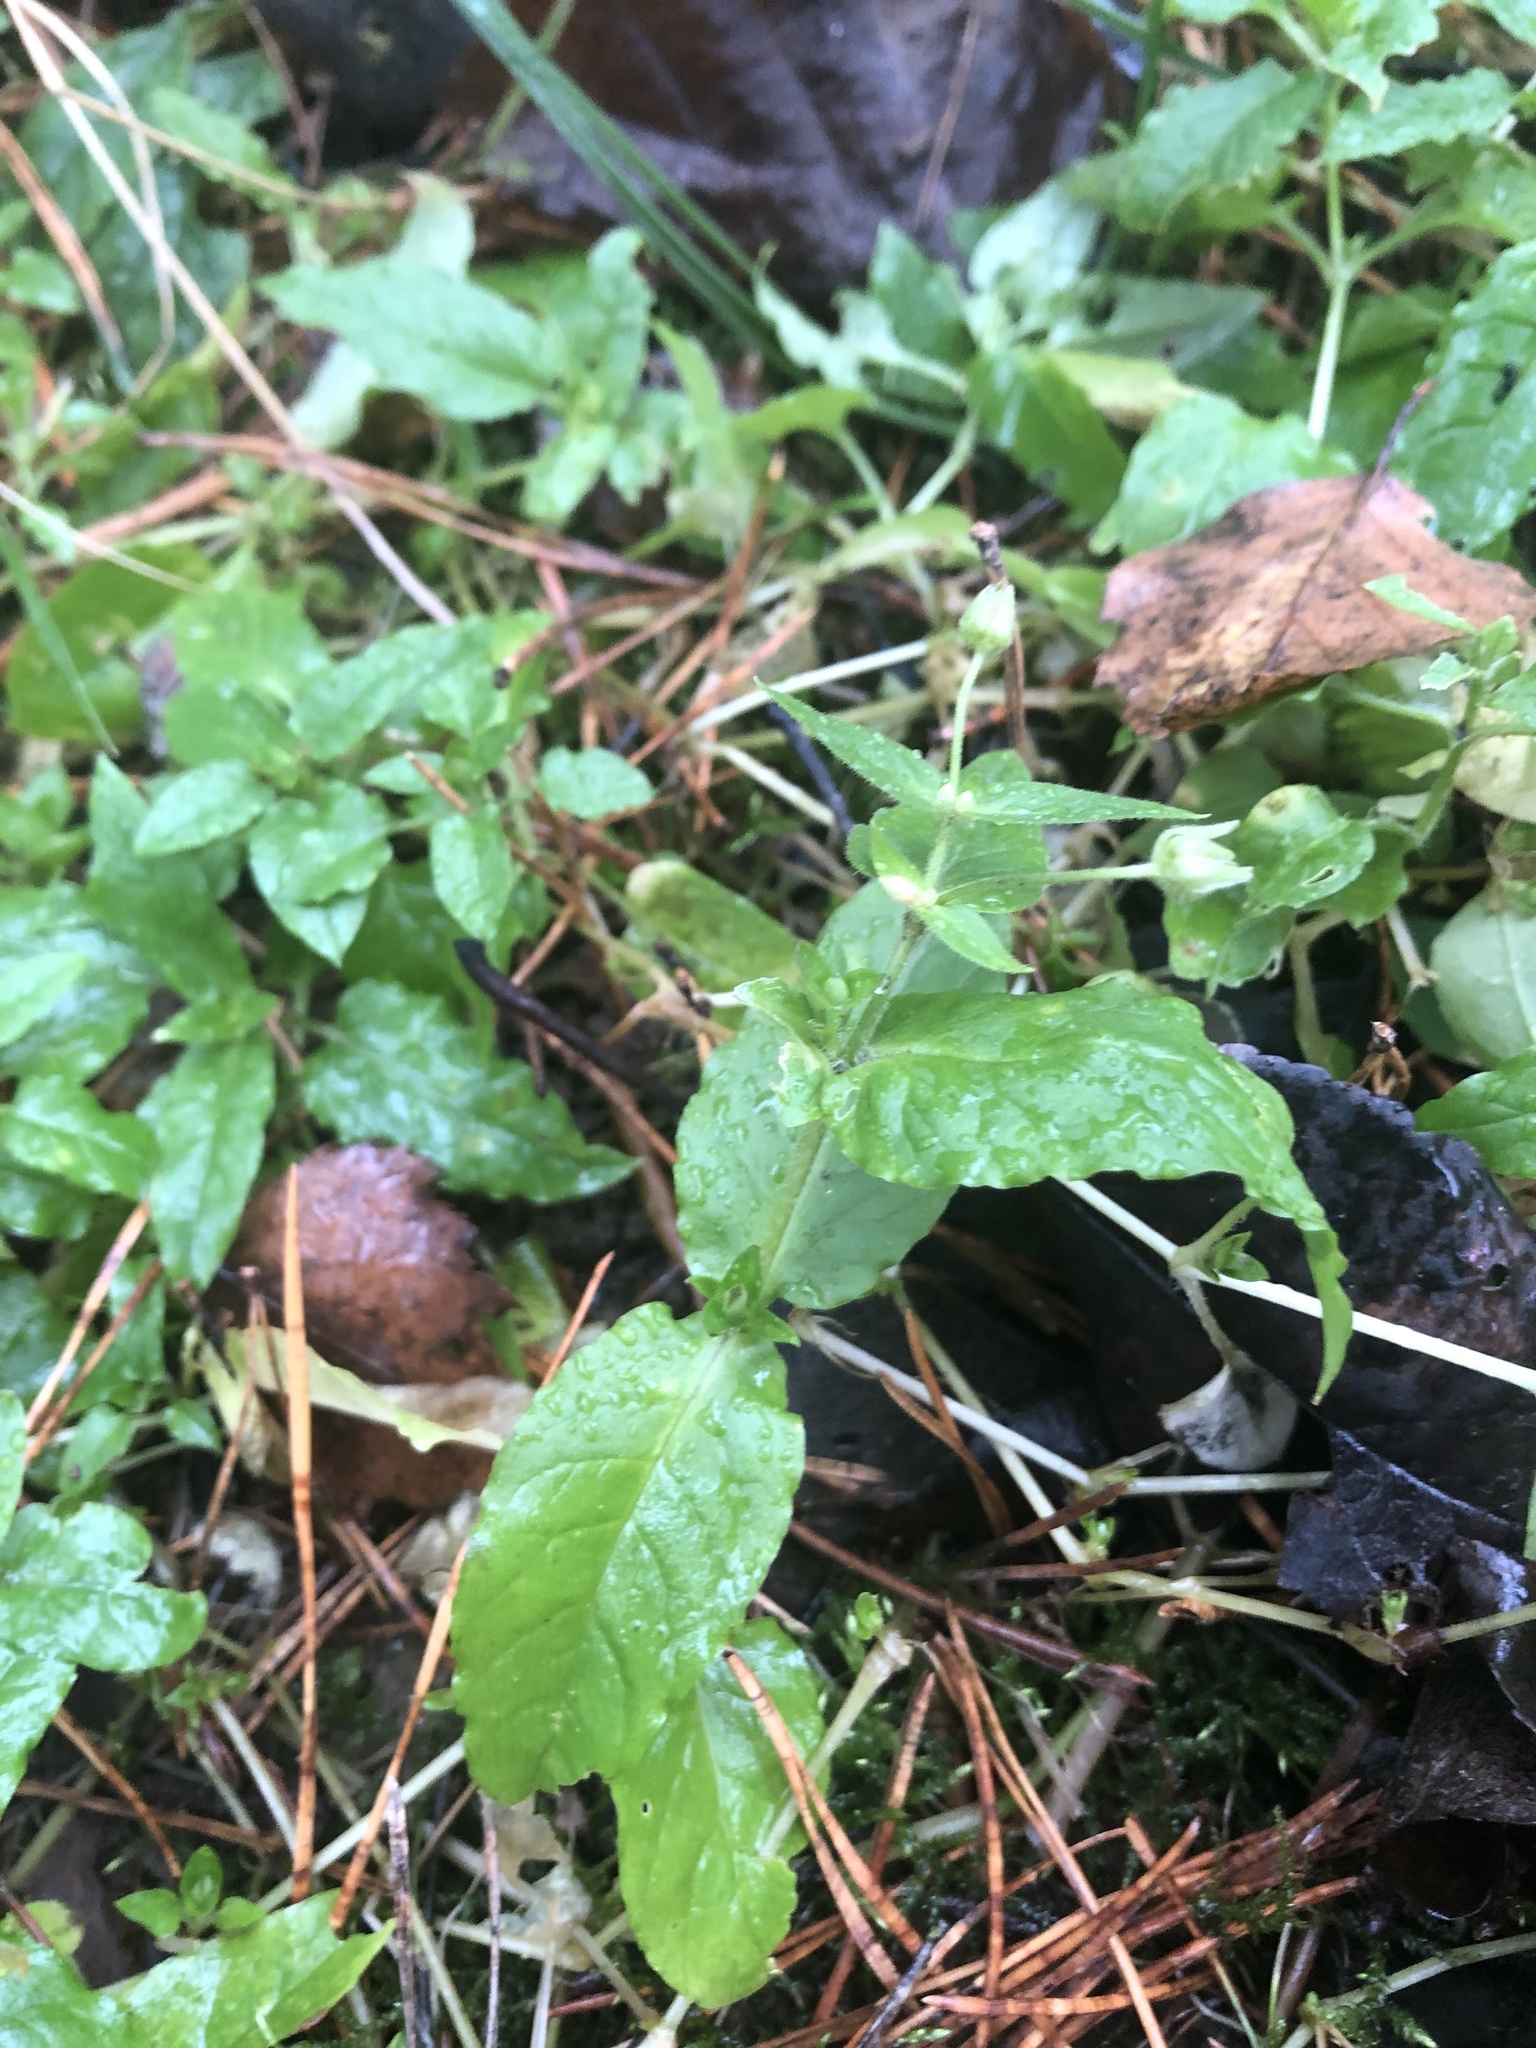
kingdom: Plantae
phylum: Tracheophyta
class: Magnoliopsida
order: Caryophyllales
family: Caryophyllaceae
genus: Stellaria
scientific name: Stellaria aquatica
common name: Water chickweed
